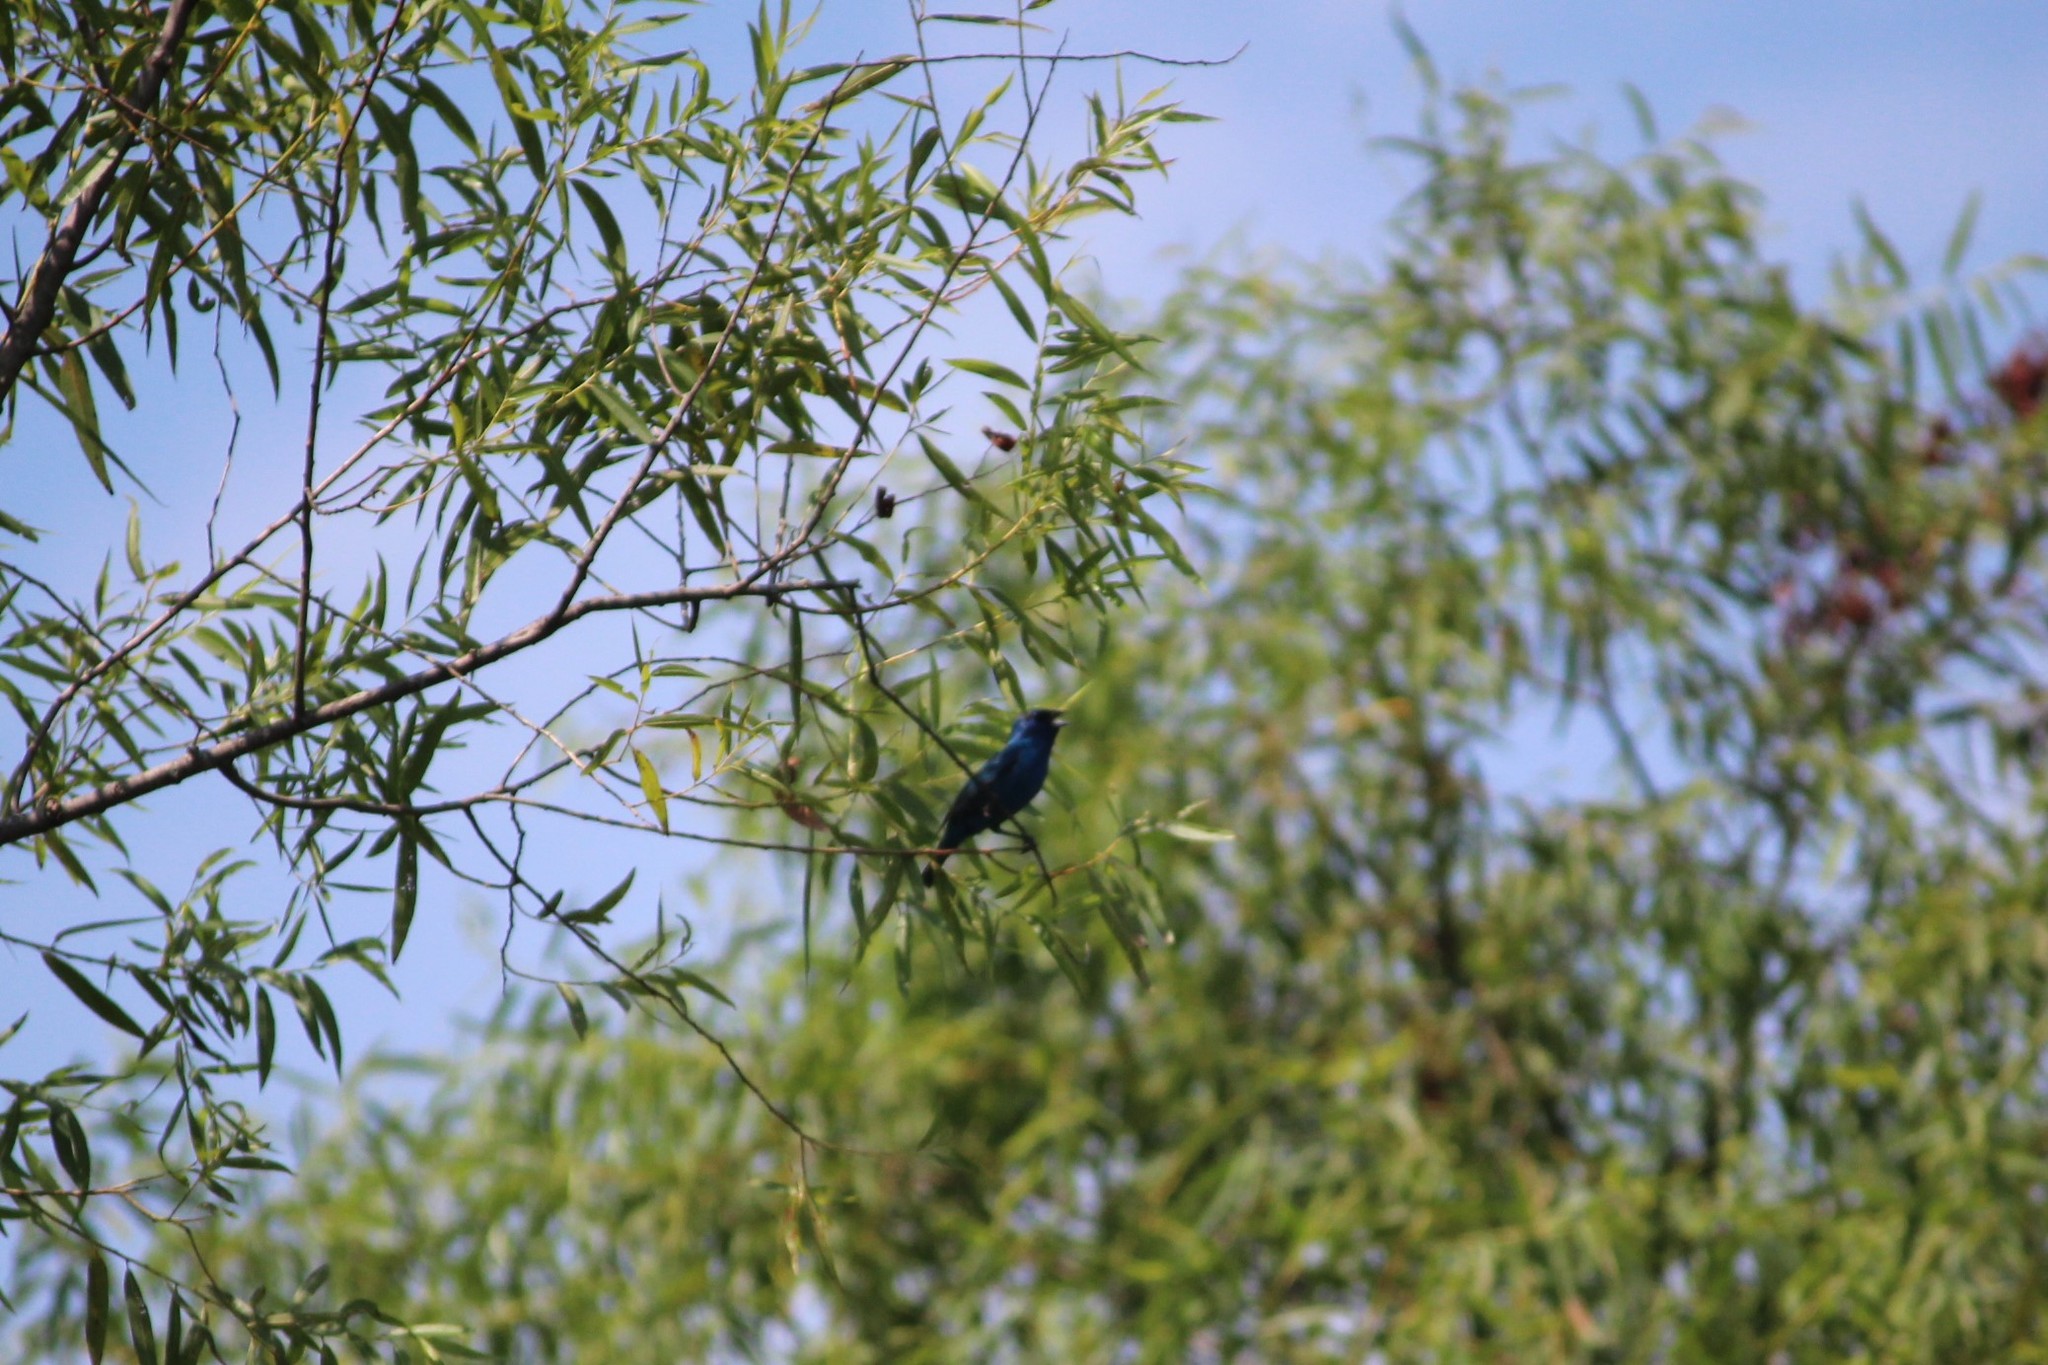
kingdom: Animalia
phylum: Chordata
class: Aves
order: Passeriformes
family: Cardinalidae
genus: Passerina
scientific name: Passerina cyanea
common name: Indigo bunting
